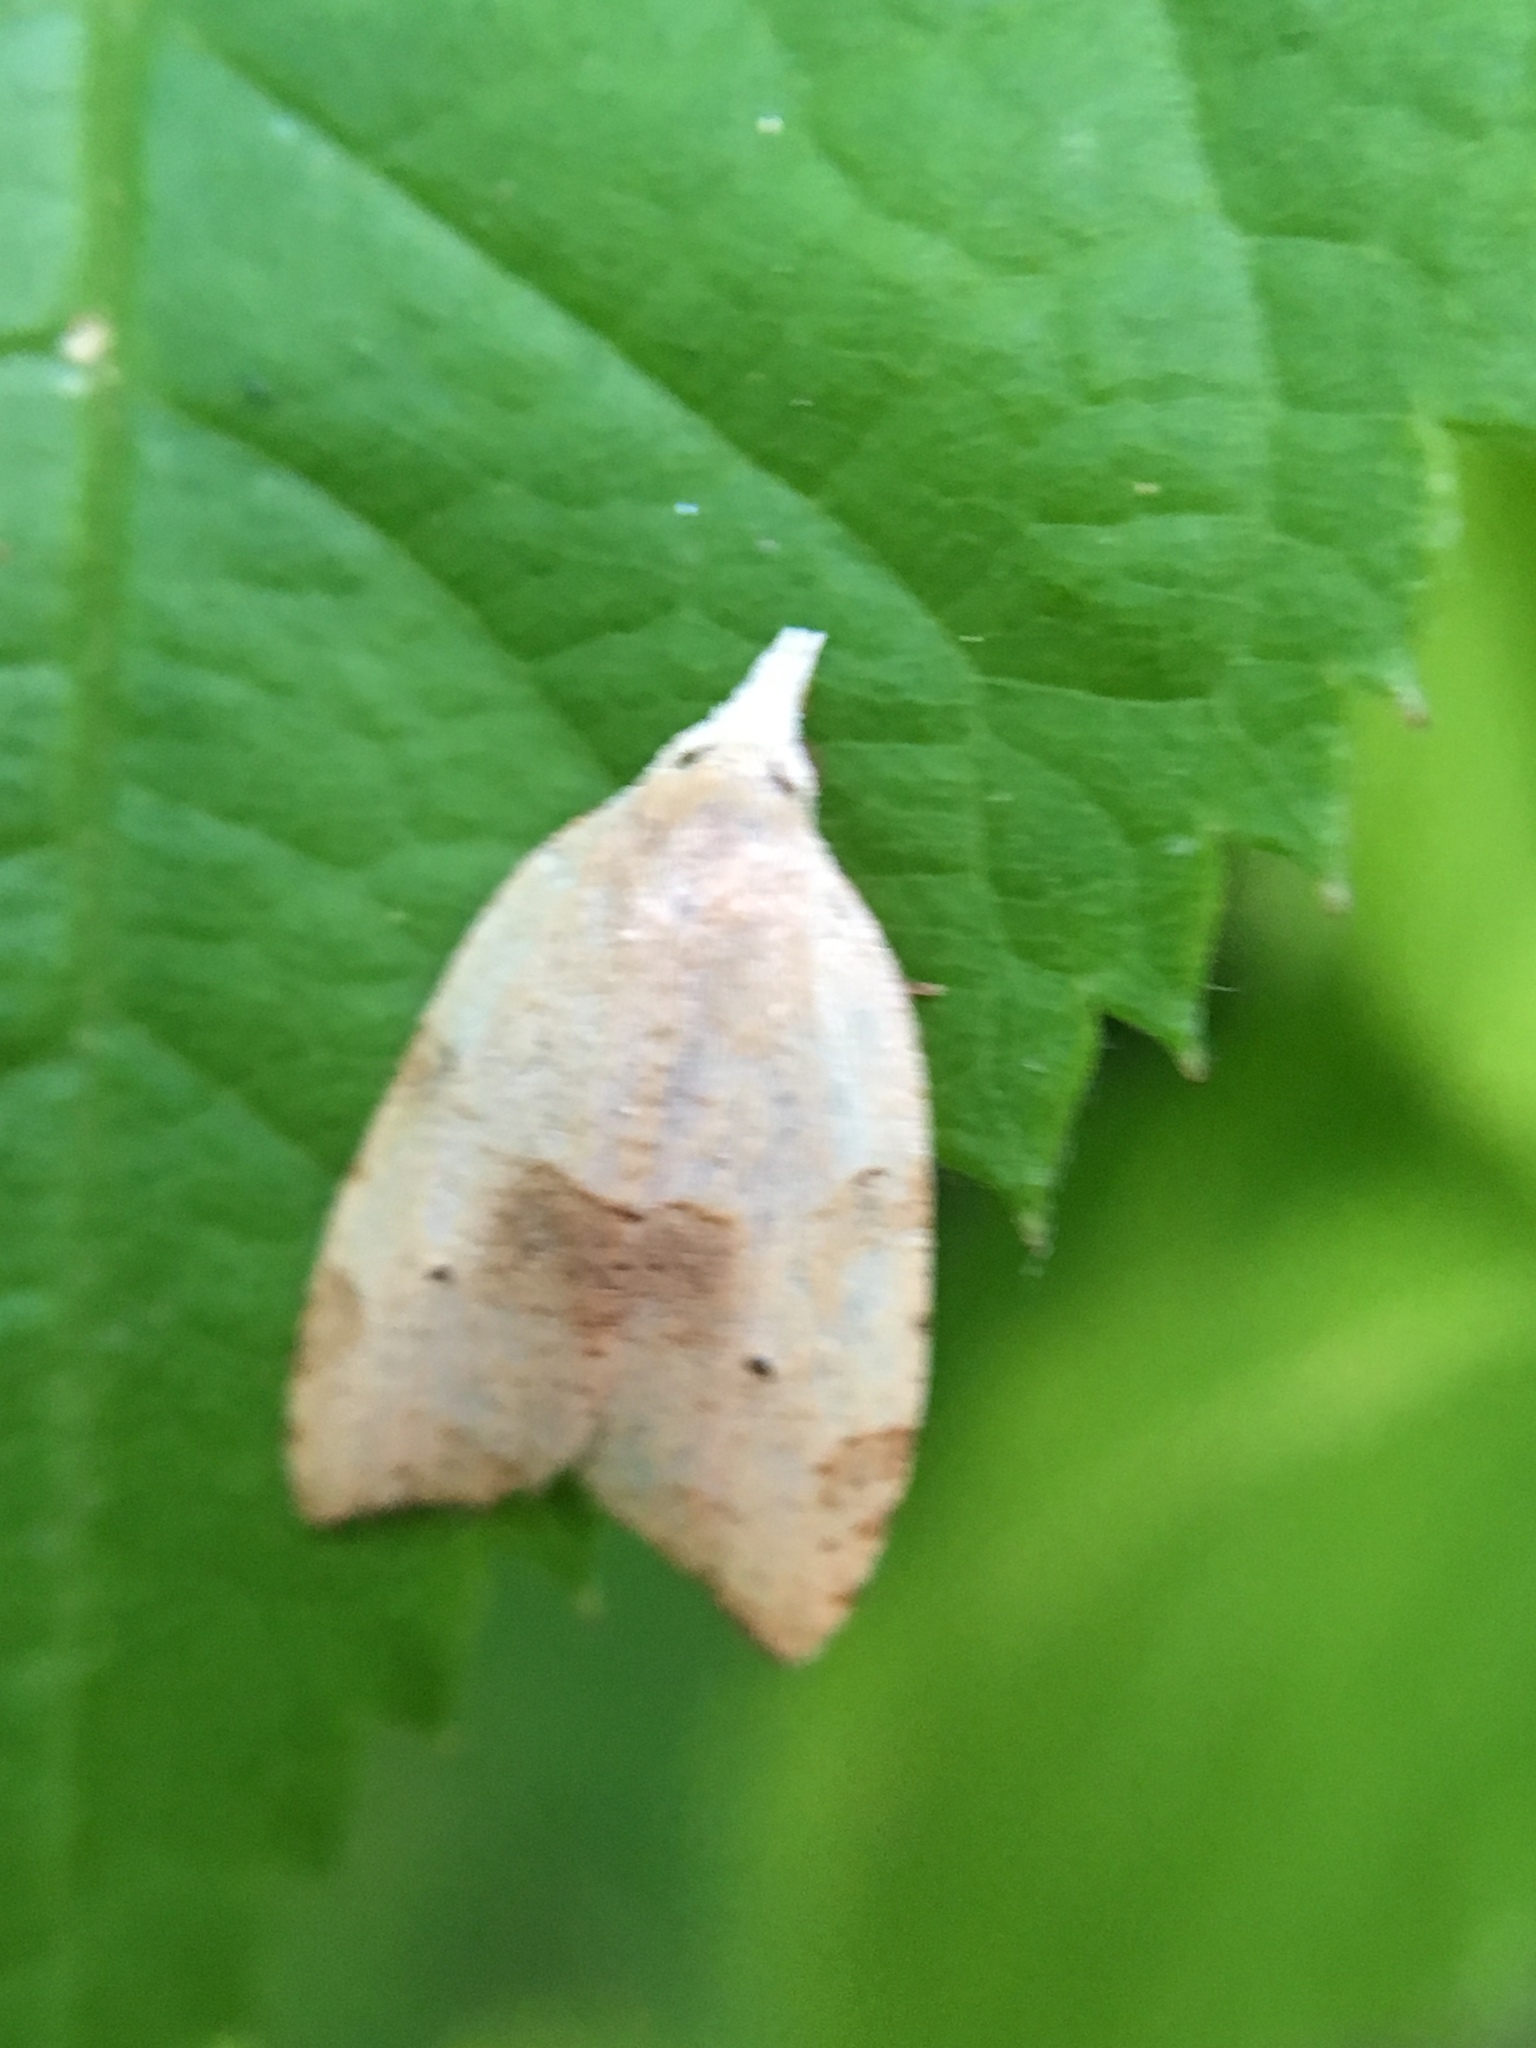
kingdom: Animalia
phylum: Arthropoda
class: Insecta
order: Lepidoptera
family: Tortricidae
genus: Coelostathma
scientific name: Coelostathma discopunctana
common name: Batman moth
